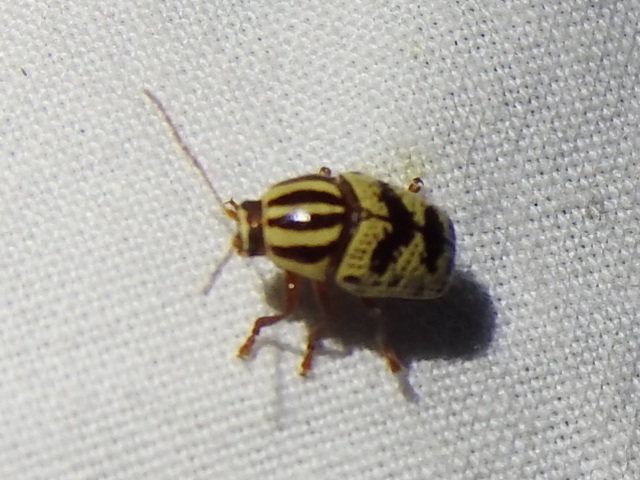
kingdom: Animalia
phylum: Arthropoda
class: Insecta
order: Coleoptera
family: Chrysomelidae
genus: Cryptocephalus
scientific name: Cryptocephalus leucomelas
